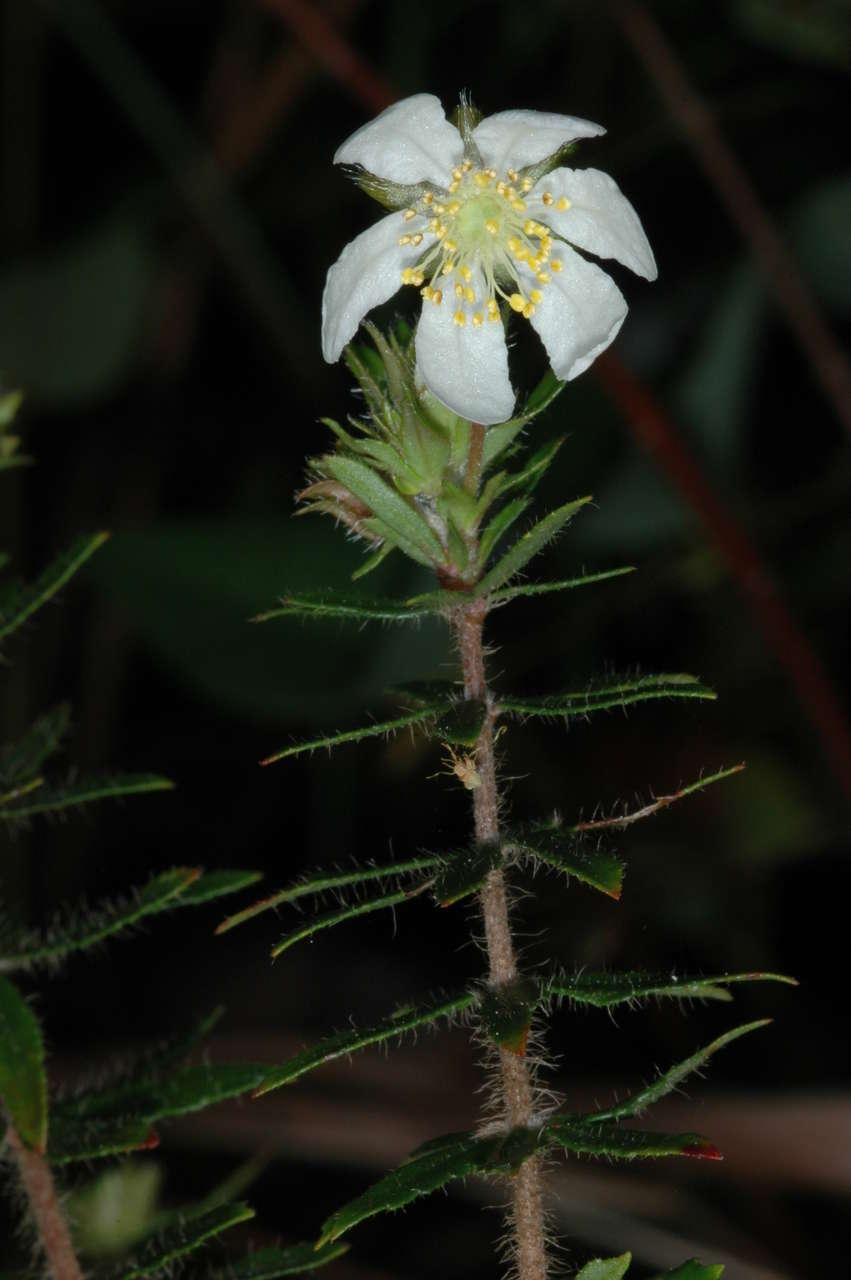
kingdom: Plantae
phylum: Tracheophyta
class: Magnoliopsida
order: Oxalidales
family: Cunoniaceae
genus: Bauera
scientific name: Bauera rubioides
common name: River-rose
